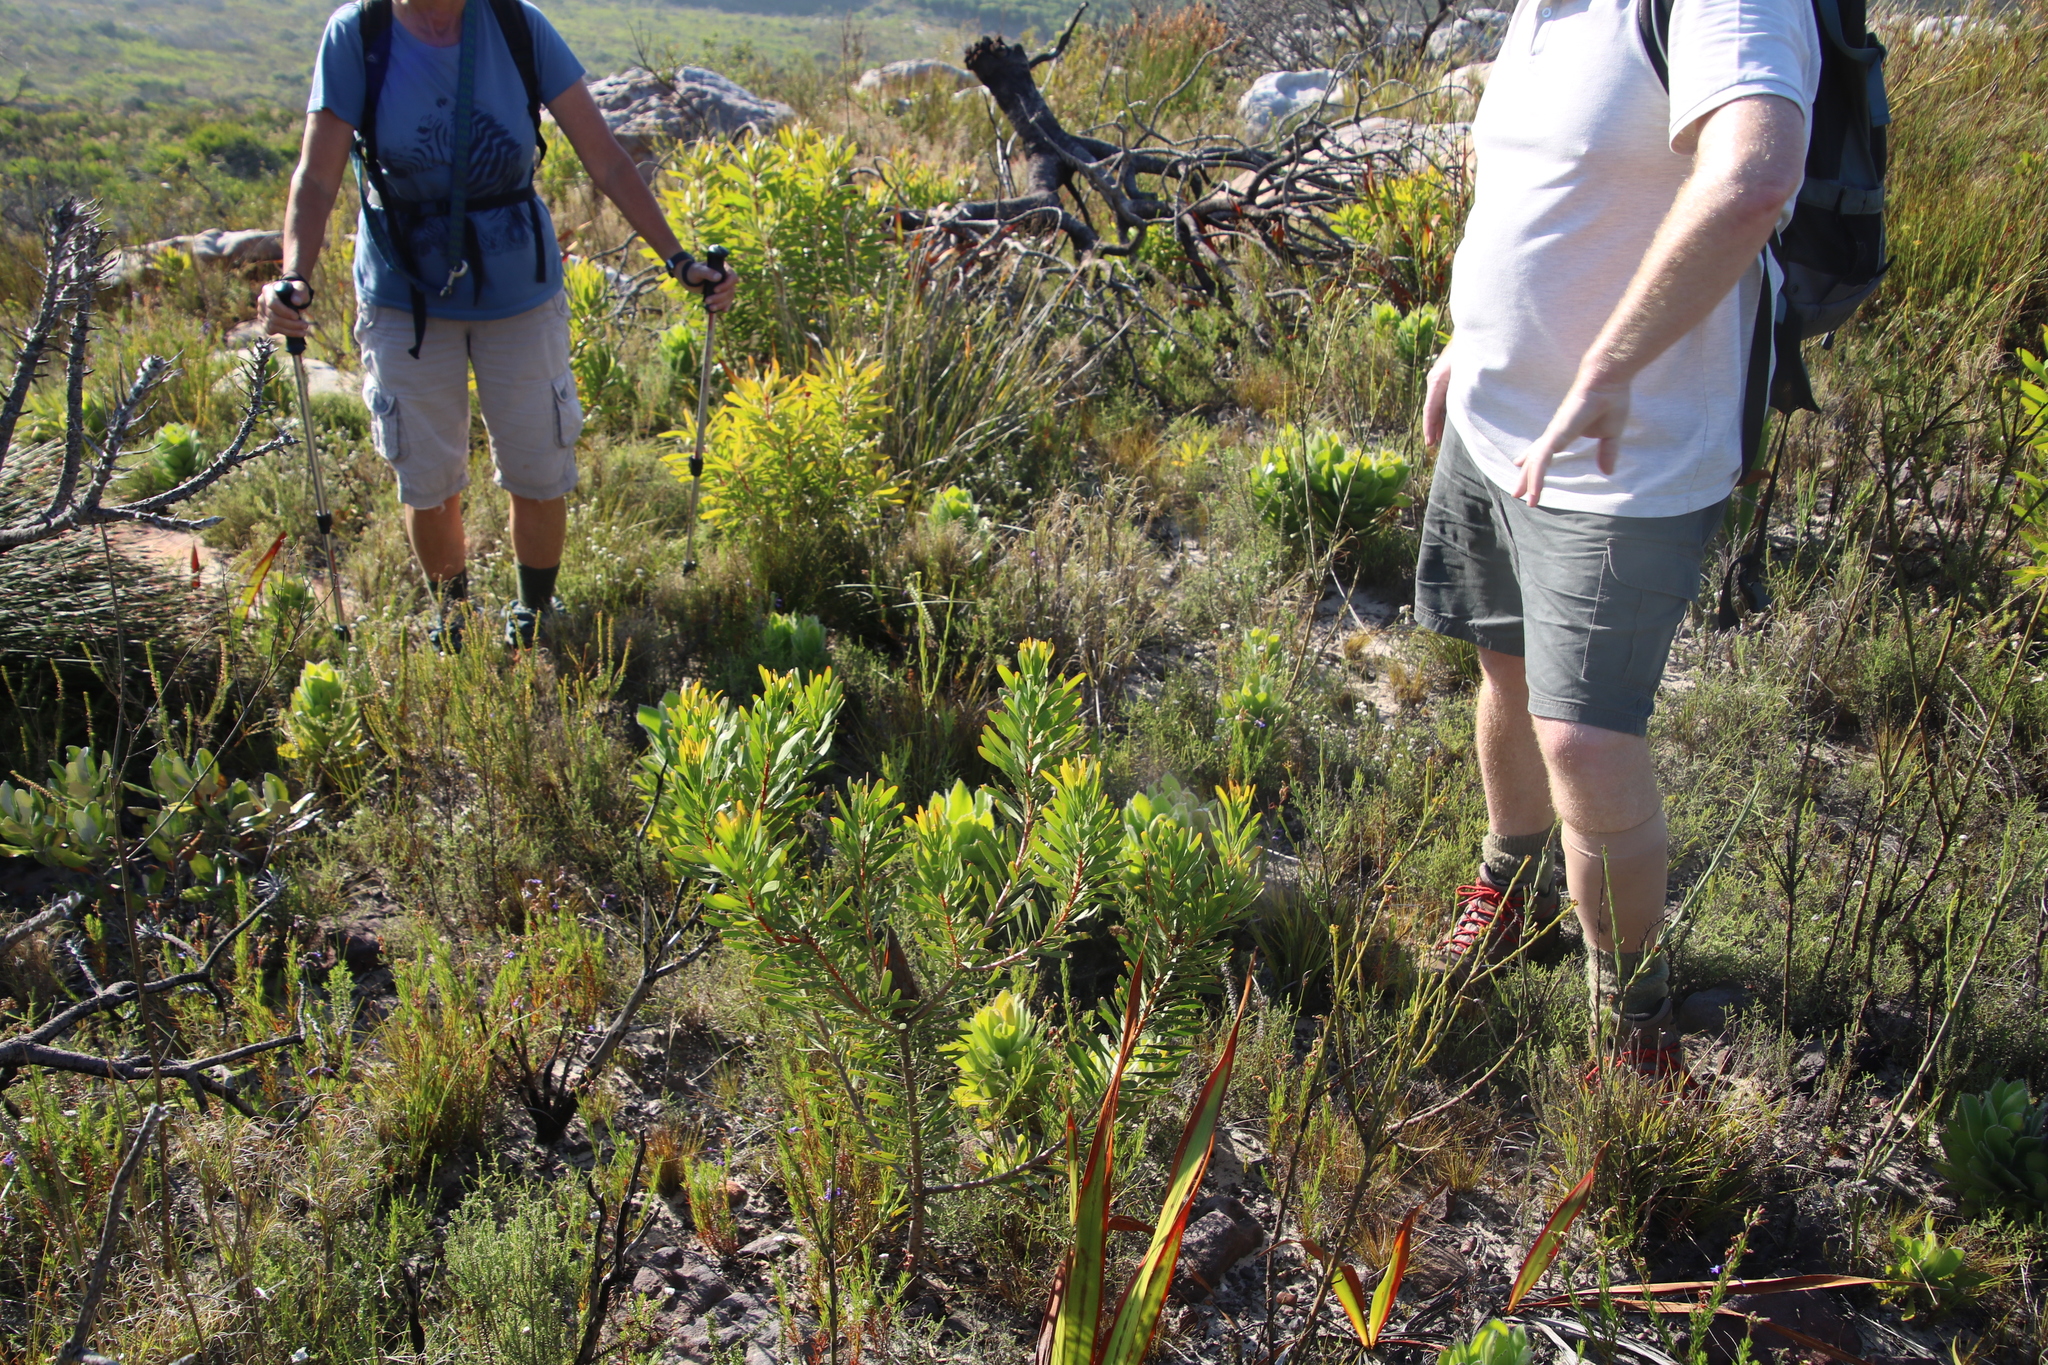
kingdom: Plantae
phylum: Tracheophyta
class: Magnoliopsida
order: Proteales
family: Proteaceae
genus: Protea
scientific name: Protea repens
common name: Sugarbush
